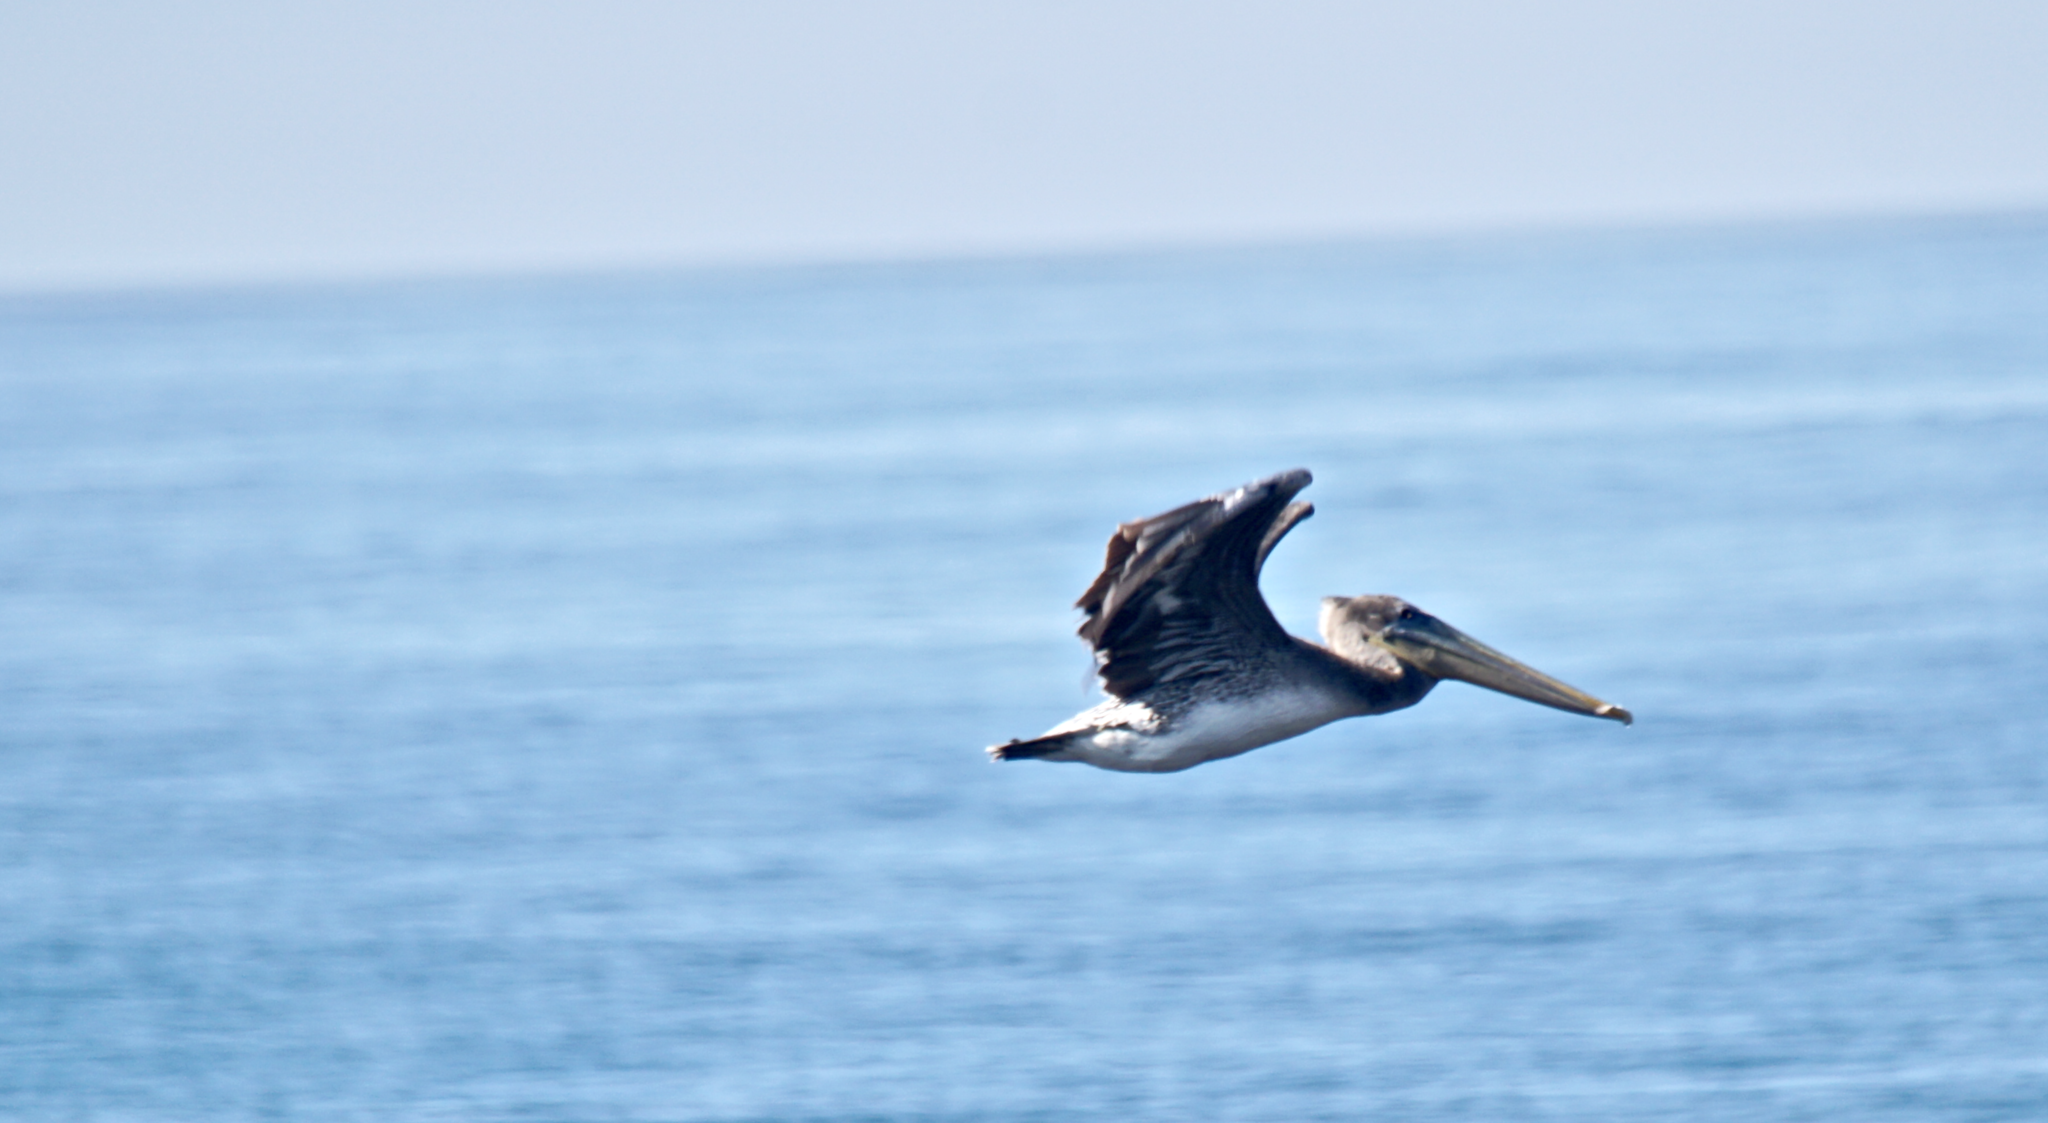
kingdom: Animalia
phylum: Chordata
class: Aves
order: Pelecaniformes
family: Pelecanidae
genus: Pelecanus
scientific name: Pelecanus occidentalis
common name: Brown pelican
